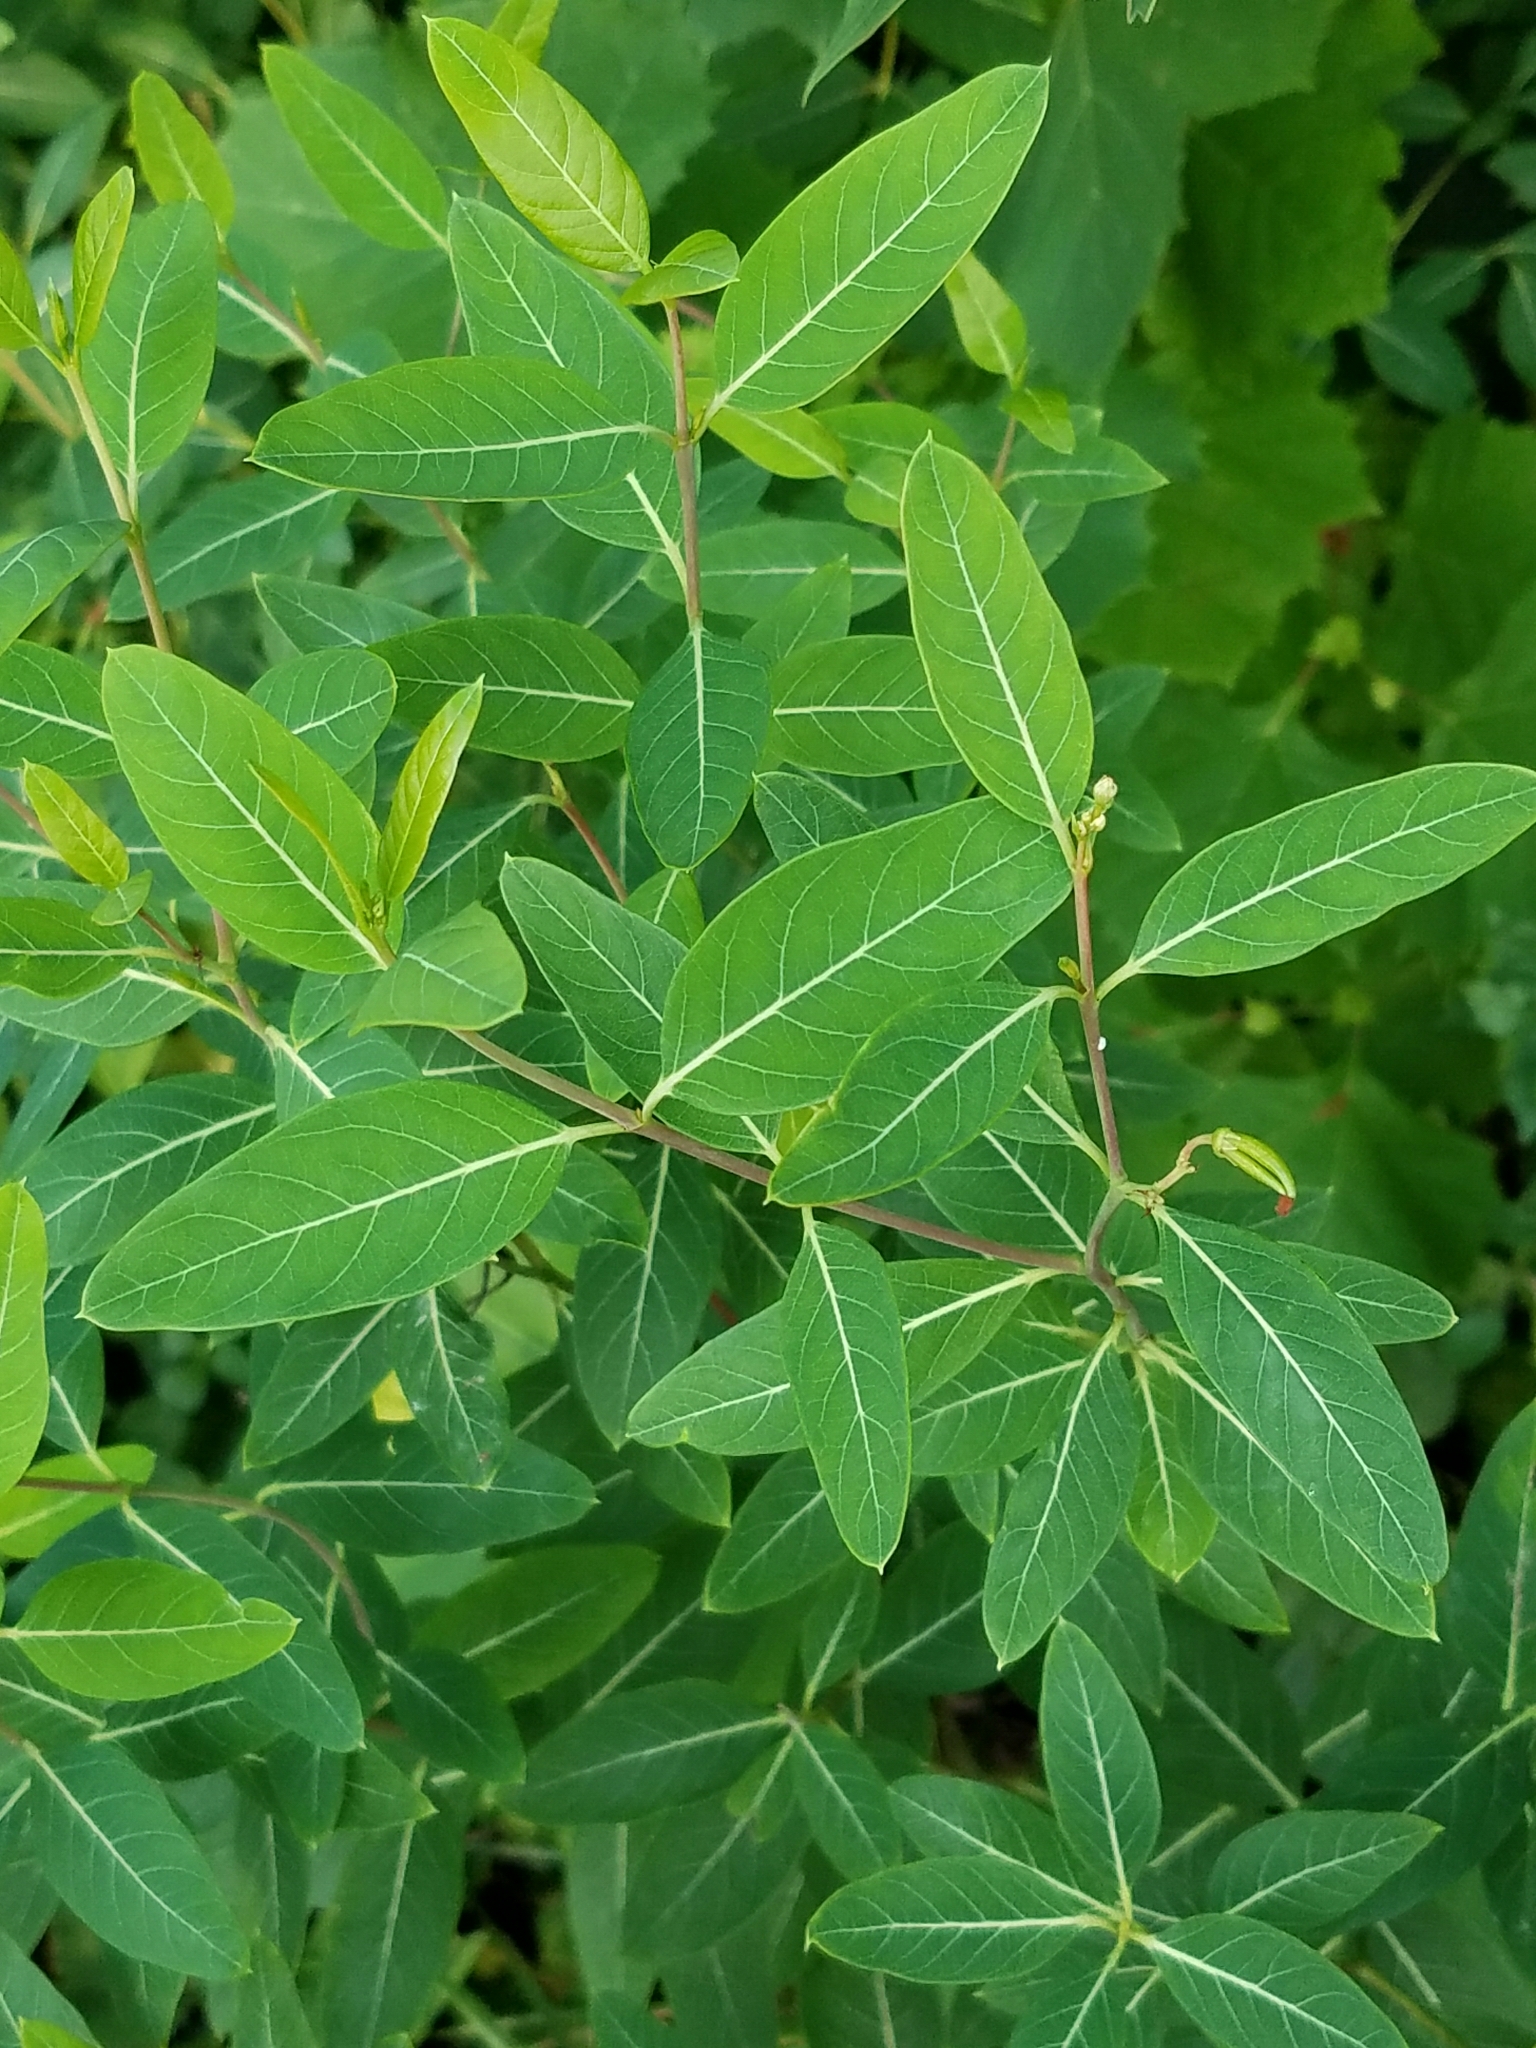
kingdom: Plantae
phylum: Tracheophyta
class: Magnoliopsida
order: Gentianales
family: Apocynaceae
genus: Apocynum
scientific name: Apocynum cannabinum
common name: Hemp dogbane
